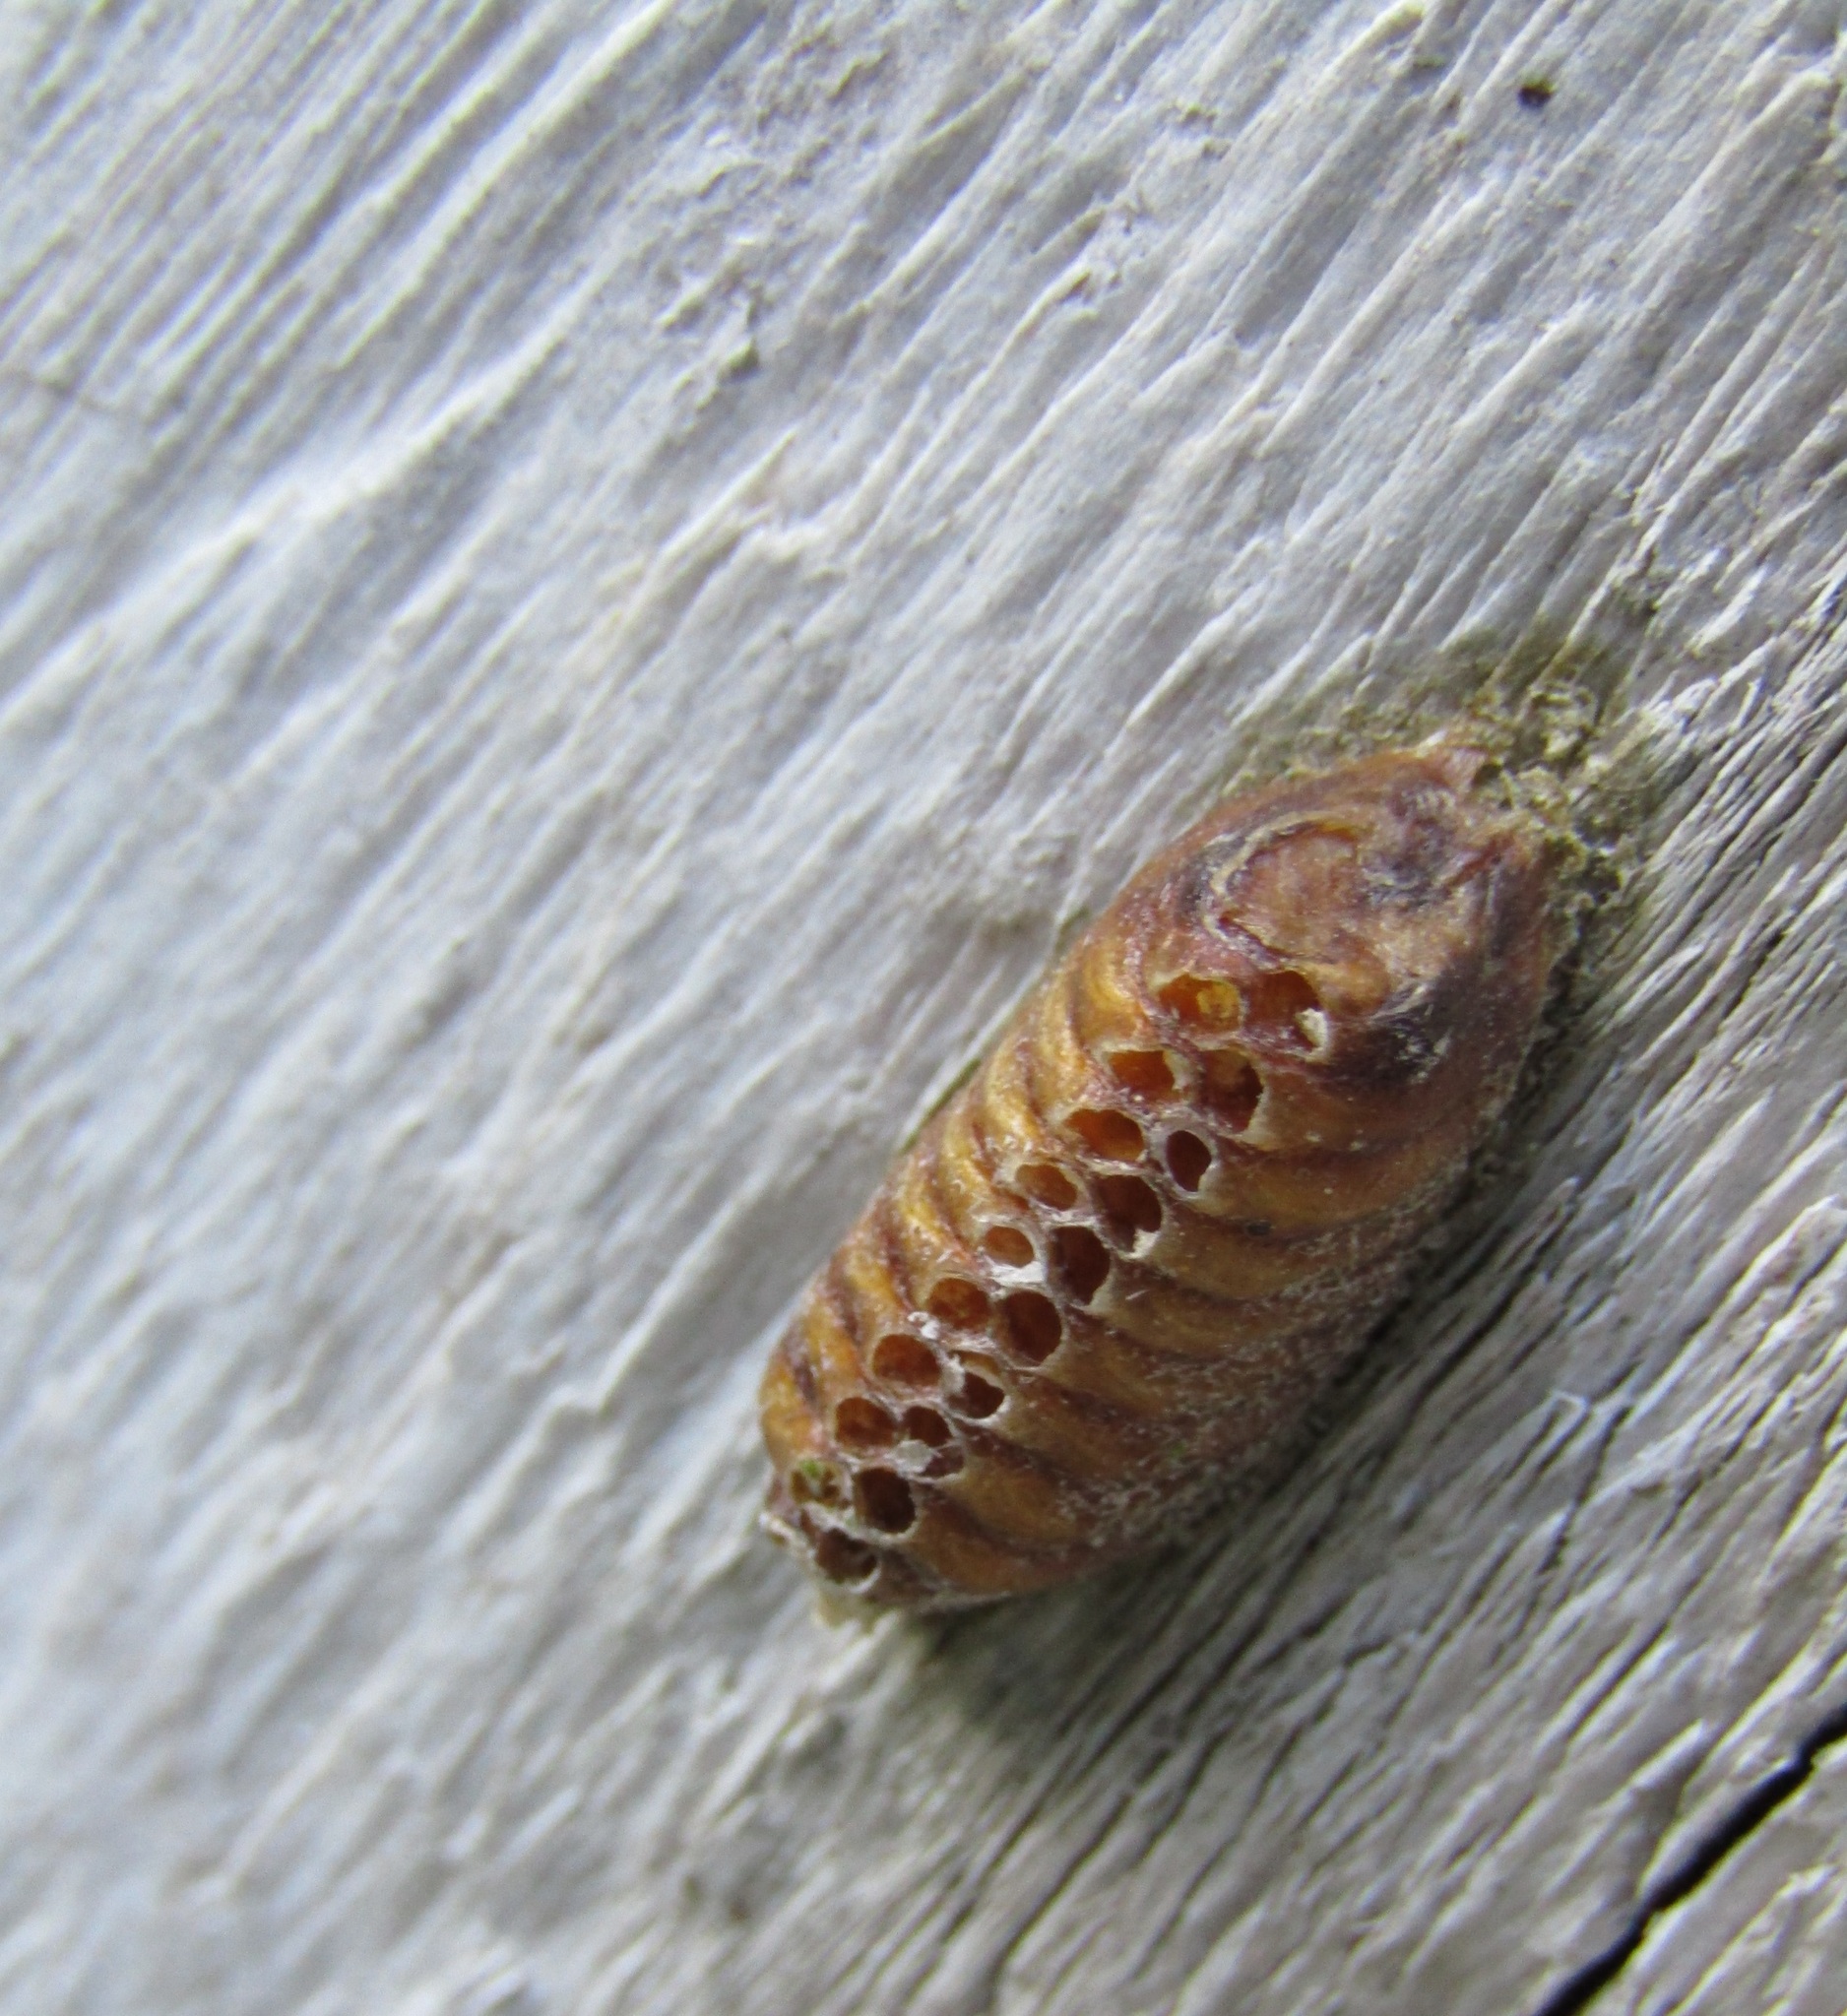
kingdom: Animalia
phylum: Arthropoda
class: Insecta
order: Mantodea
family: Mantidae
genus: Orthodera
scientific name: Orthodera novaezealandiae
